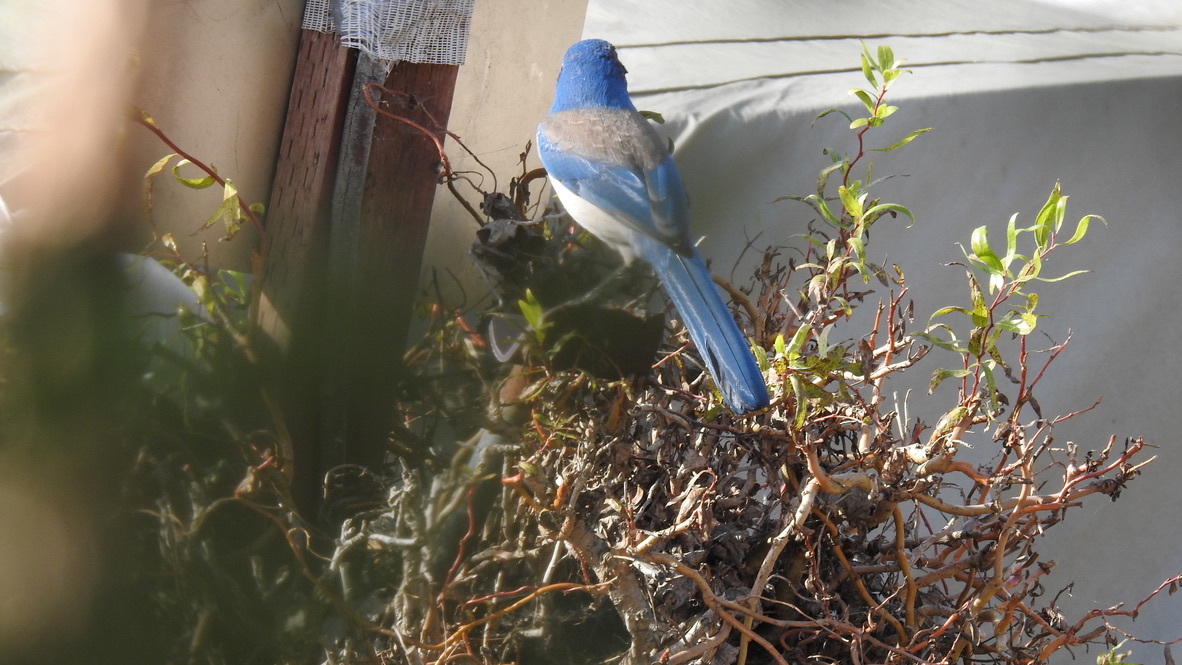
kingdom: Animalia
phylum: Chordata
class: Aves
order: Passeriformes
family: Corvidae
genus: Aphelocoma
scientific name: Aphelocoma californica
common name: California scrub-jay
